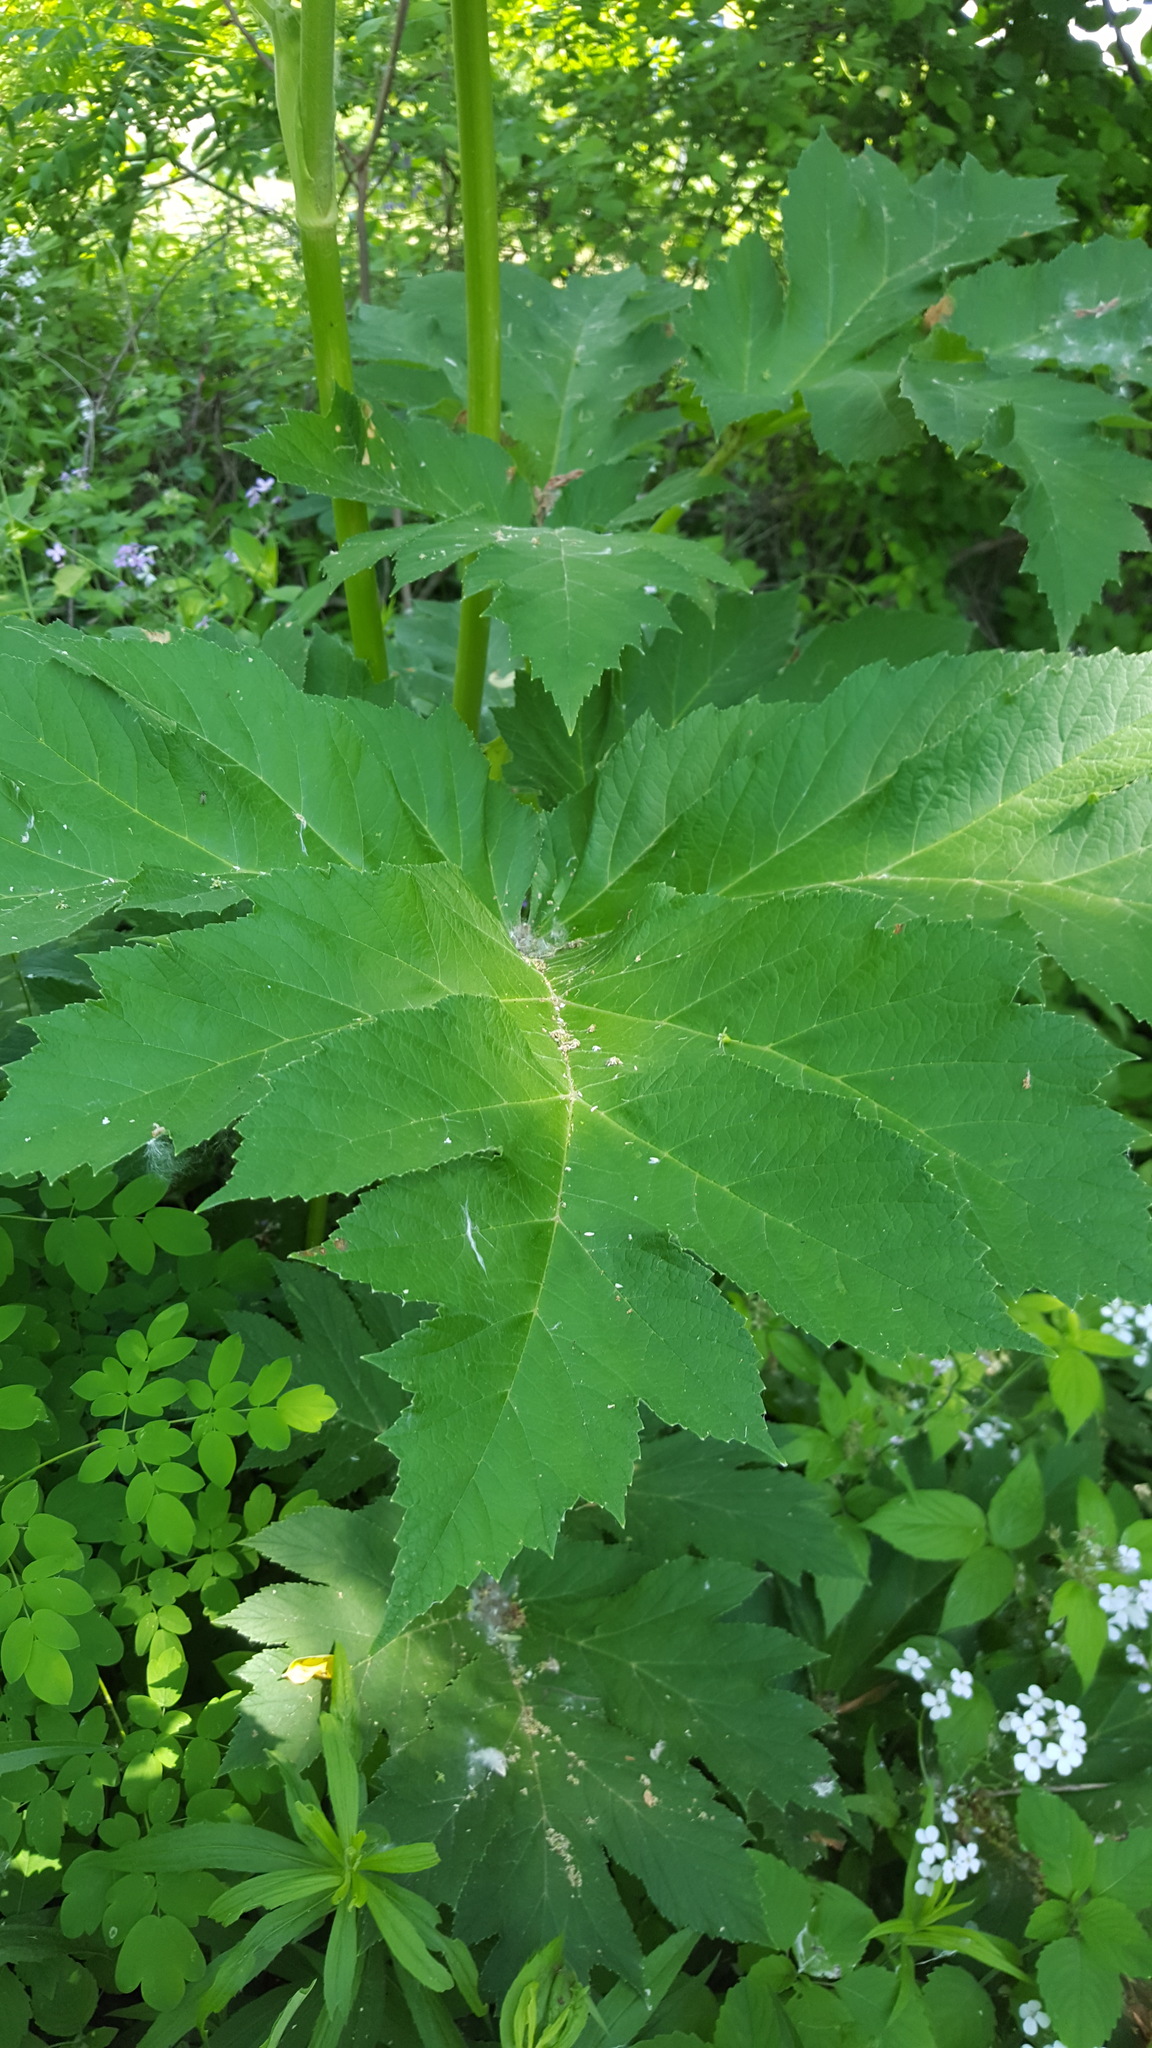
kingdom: Plantae
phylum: Tracheophyta
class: Magnoliopsida
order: Apiales
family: Apiaceae
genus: Heracleum
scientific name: Heracleum maximum
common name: American cow parsnip
